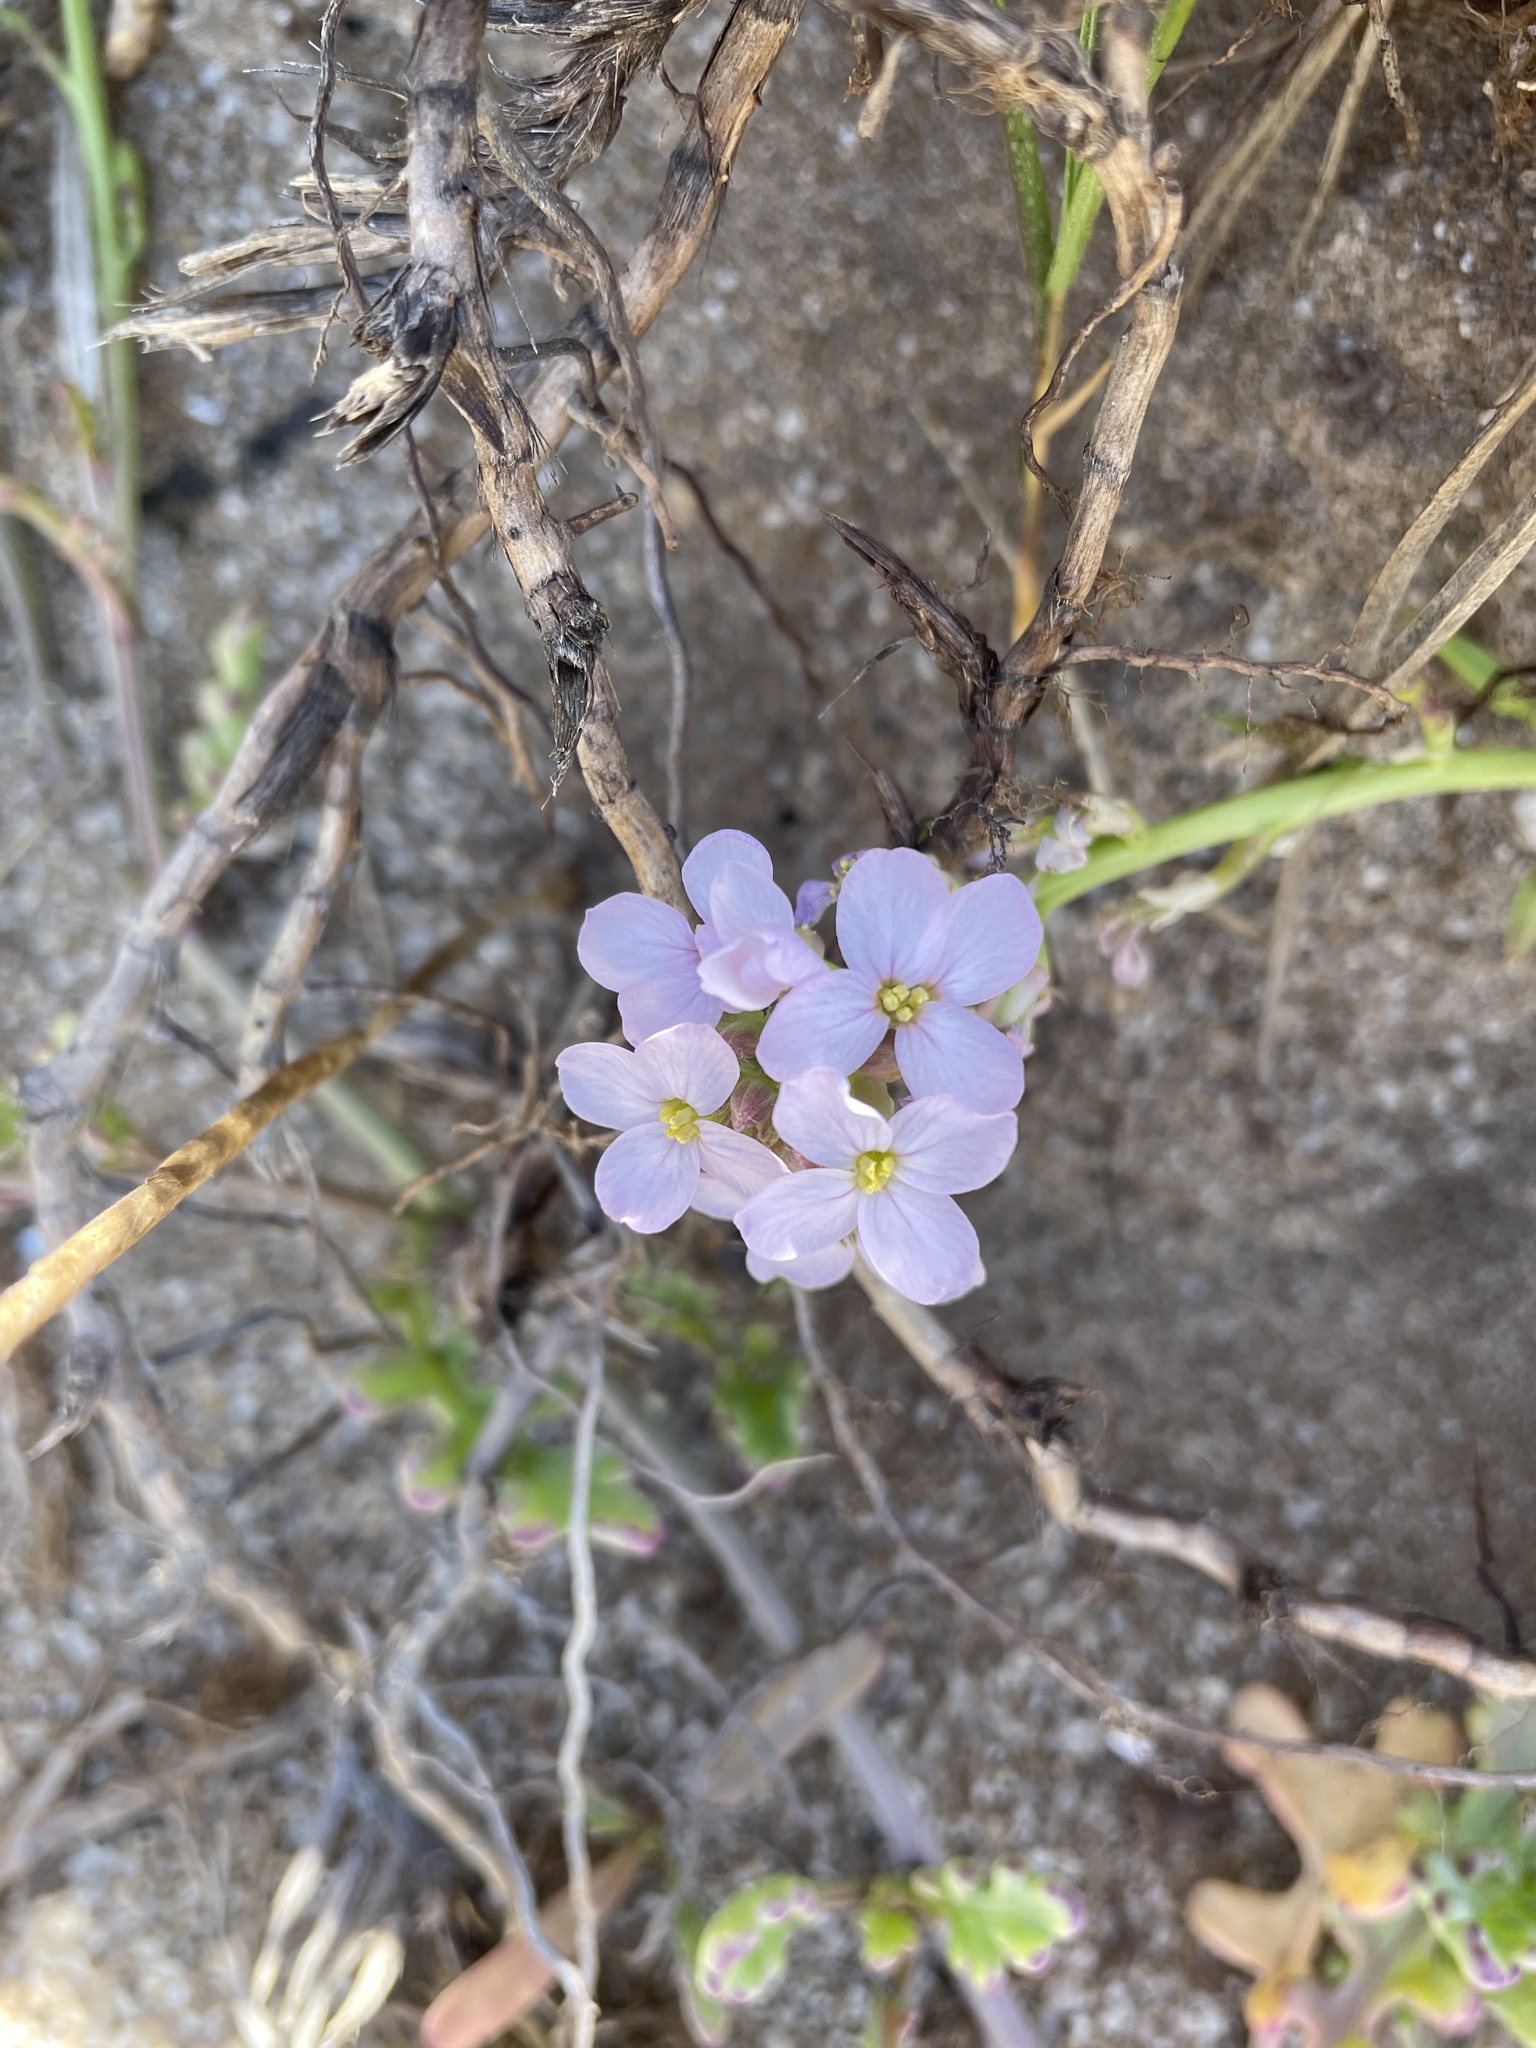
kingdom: Plantae
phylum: Tracheophyta
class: Magnoliopsida
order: Brassicales
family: Brassicaceae
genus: Cakile
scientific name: Cakile maritima
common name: Sea rocket
